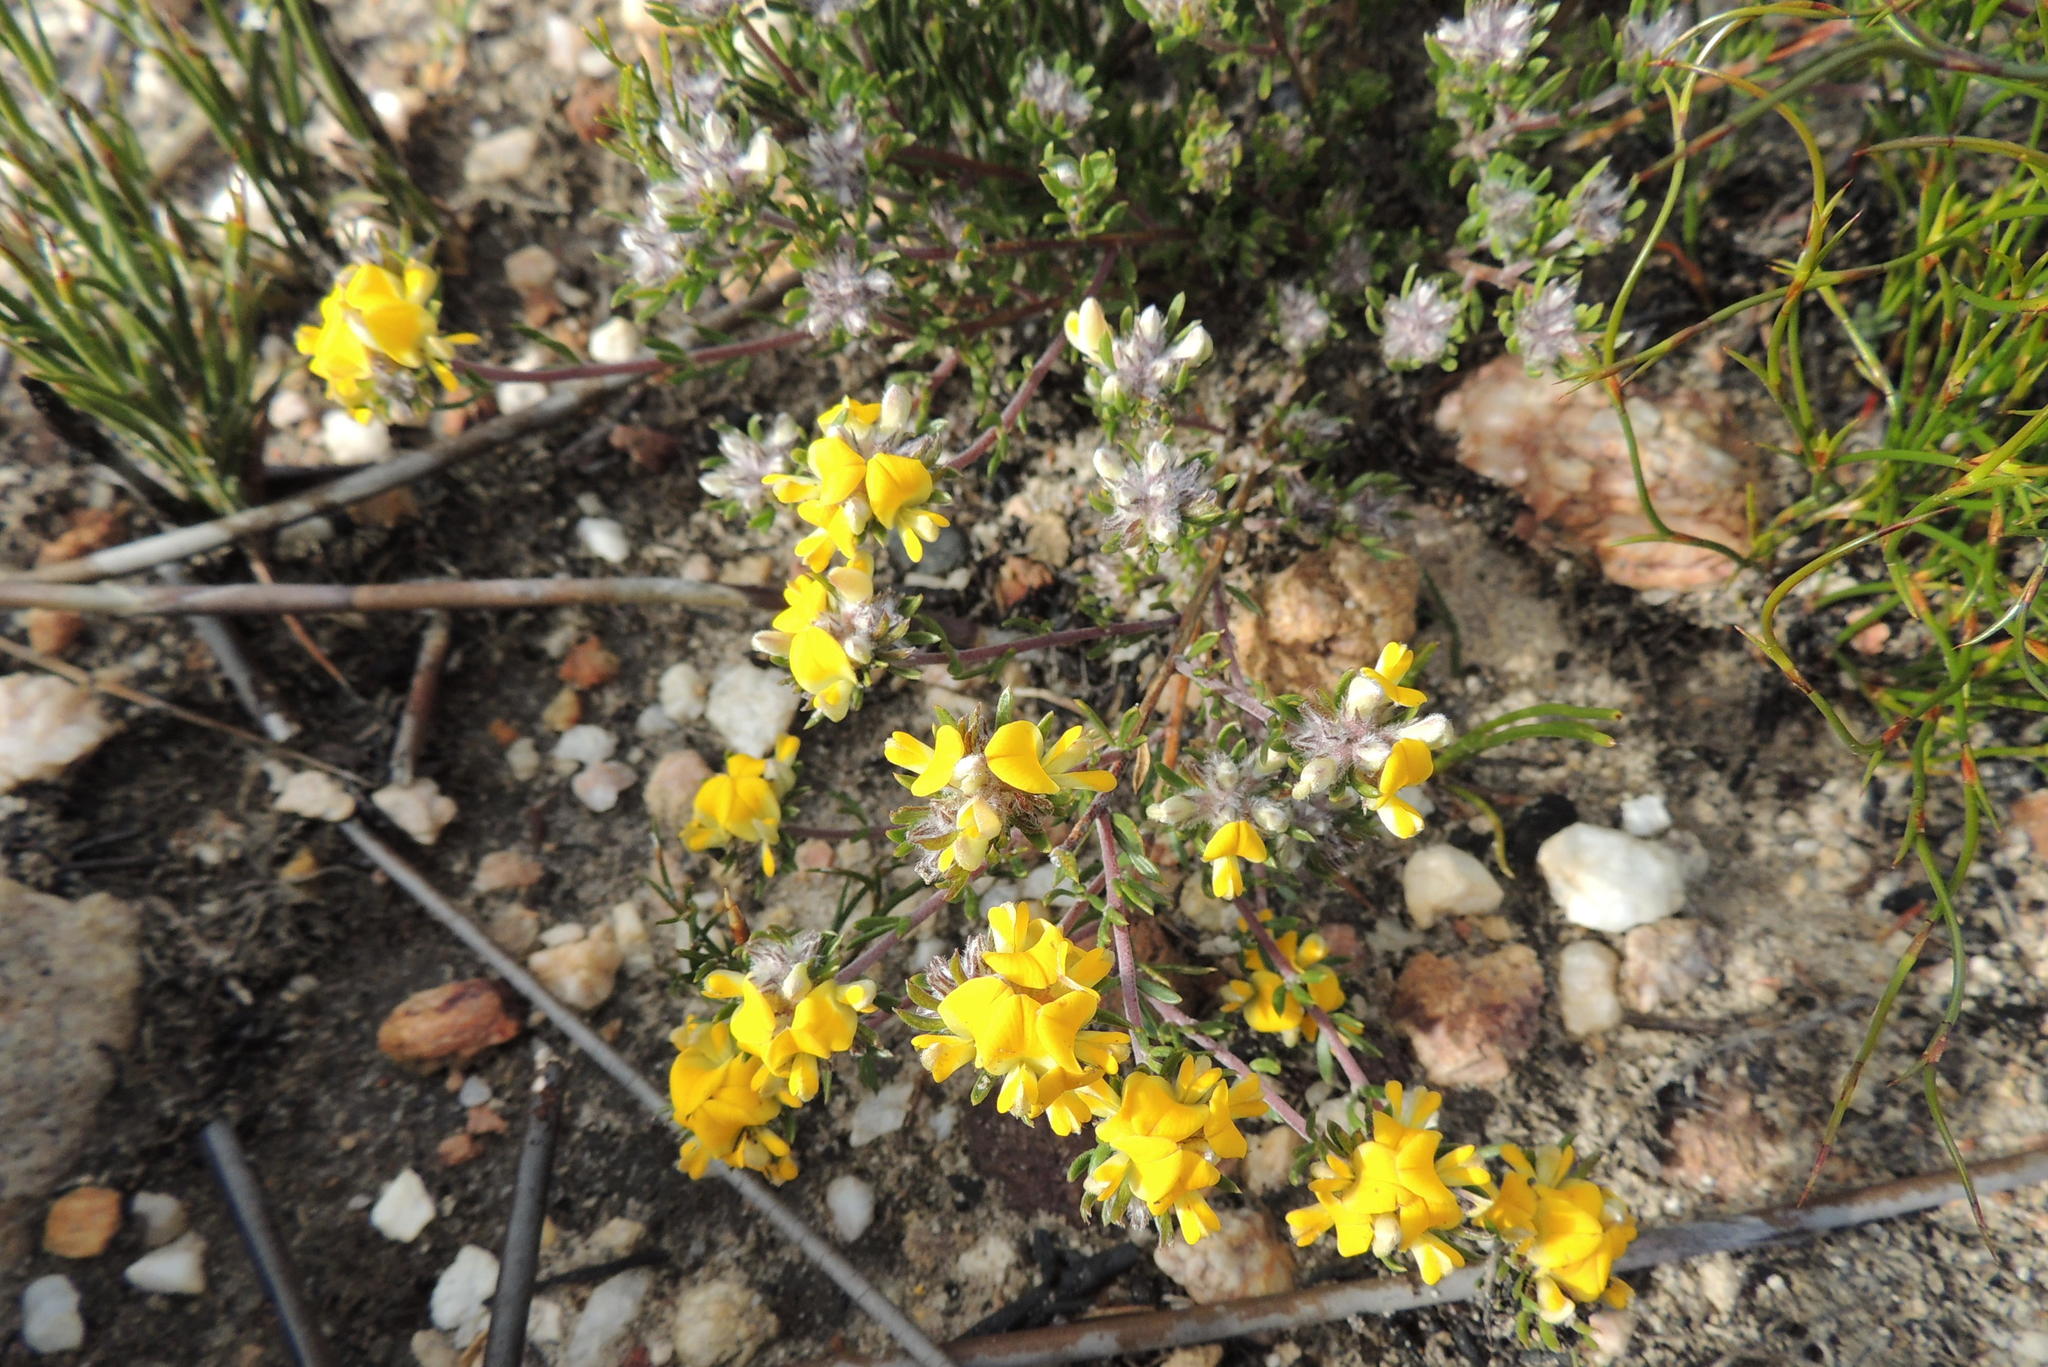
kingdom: Plantae
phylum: Tracheophyta
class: Magnoliopsida
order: Fabales
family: Fabaceae
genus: Aspalathus
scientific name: Aspalathus inops
